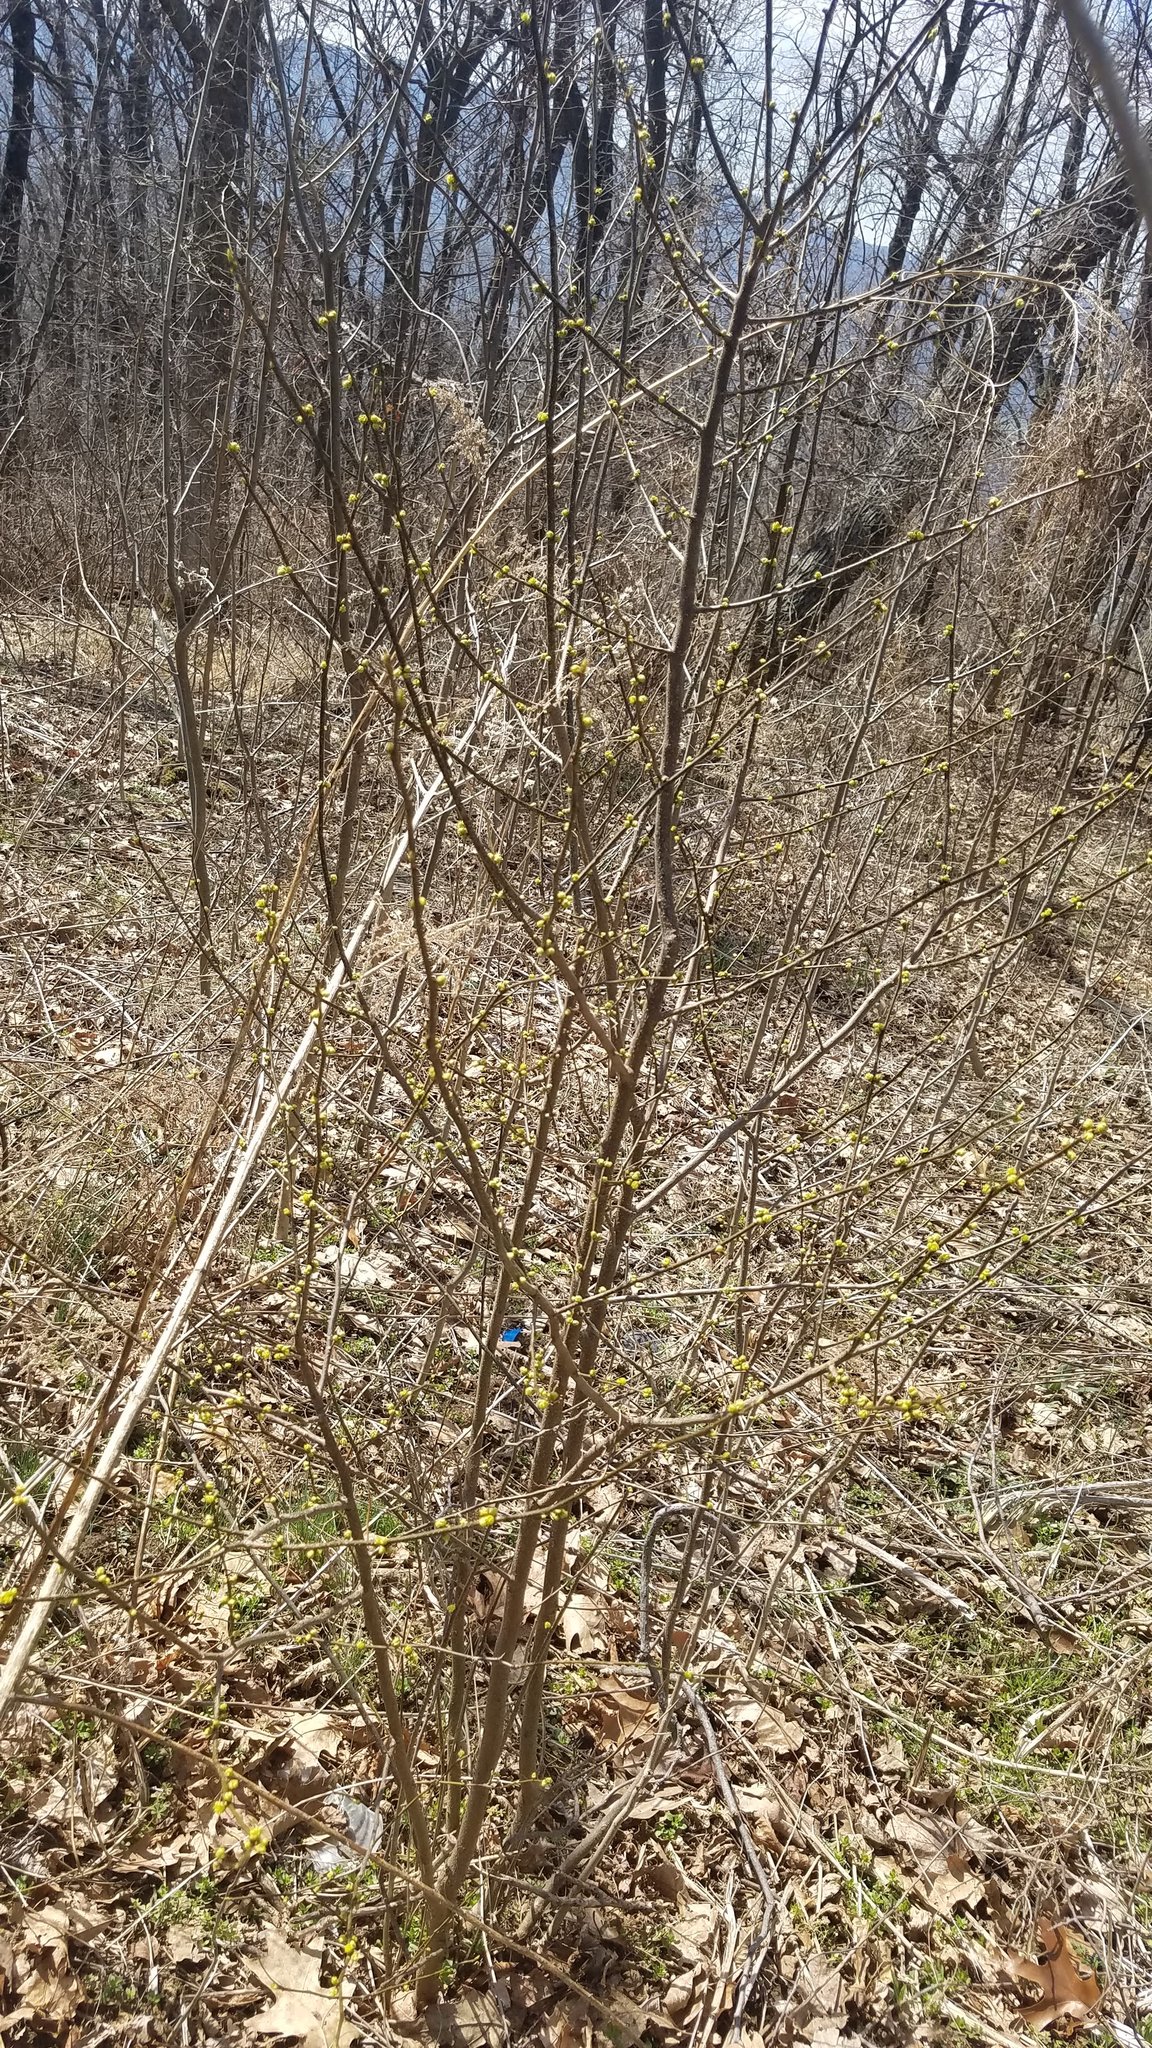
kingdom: Plantae
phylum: Tracheophyta
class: Magnoliopsida
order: Laurales
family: Lauraceae
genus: Lindera
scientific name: Lindera benzoin
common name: Spicebush
